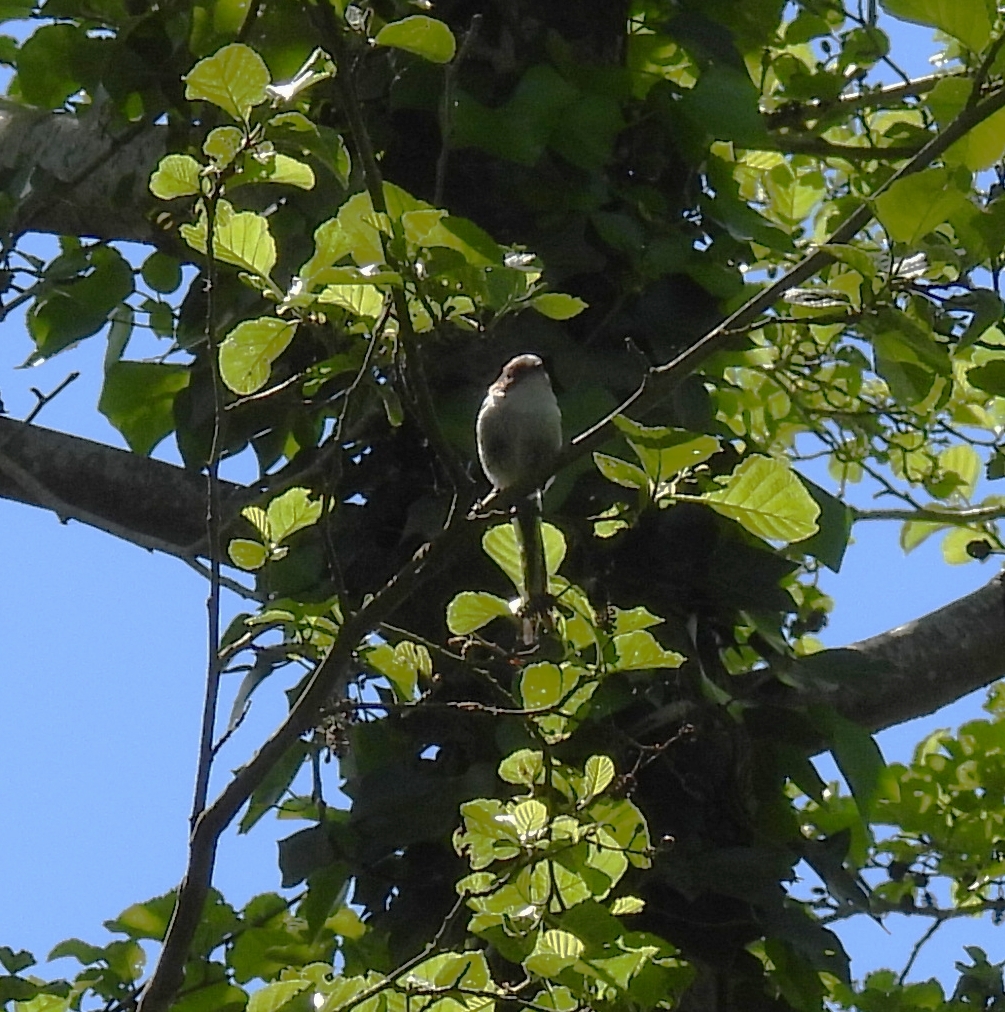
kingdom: Animalia
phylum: Chordata
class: Aves
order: Passeriformes
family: Aegithalidae
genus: Aegithalos
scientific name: Aegithalos caudatus
